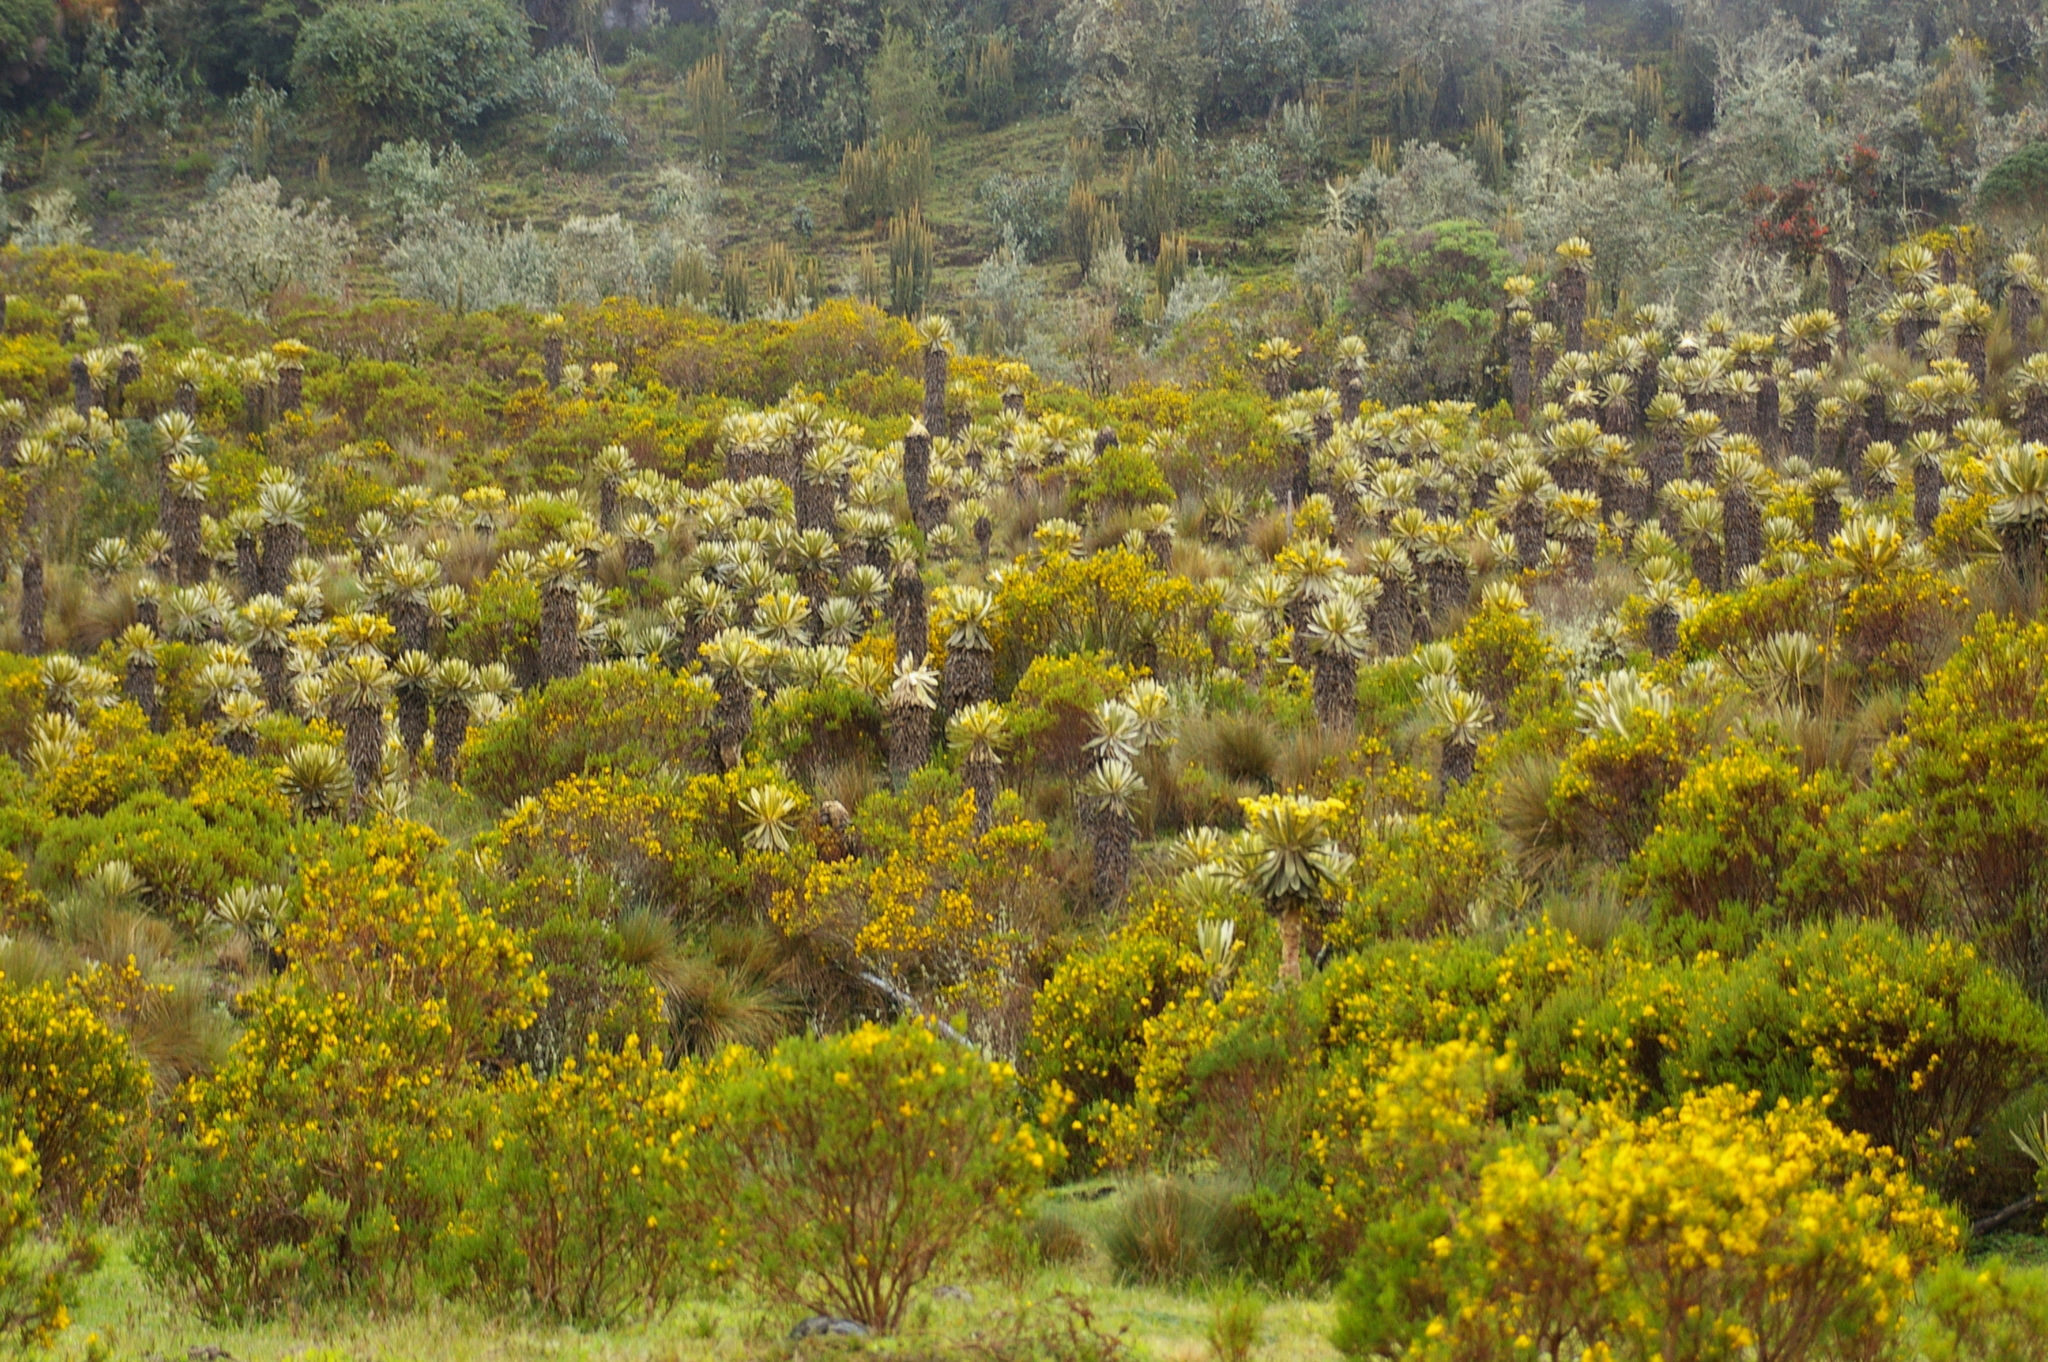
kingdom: Plantae
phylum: Tracheophyta
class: Magnoliopsida
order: Asterales
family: Asteraceae
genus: Espeletia
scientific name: Espeletia hartwegiana
